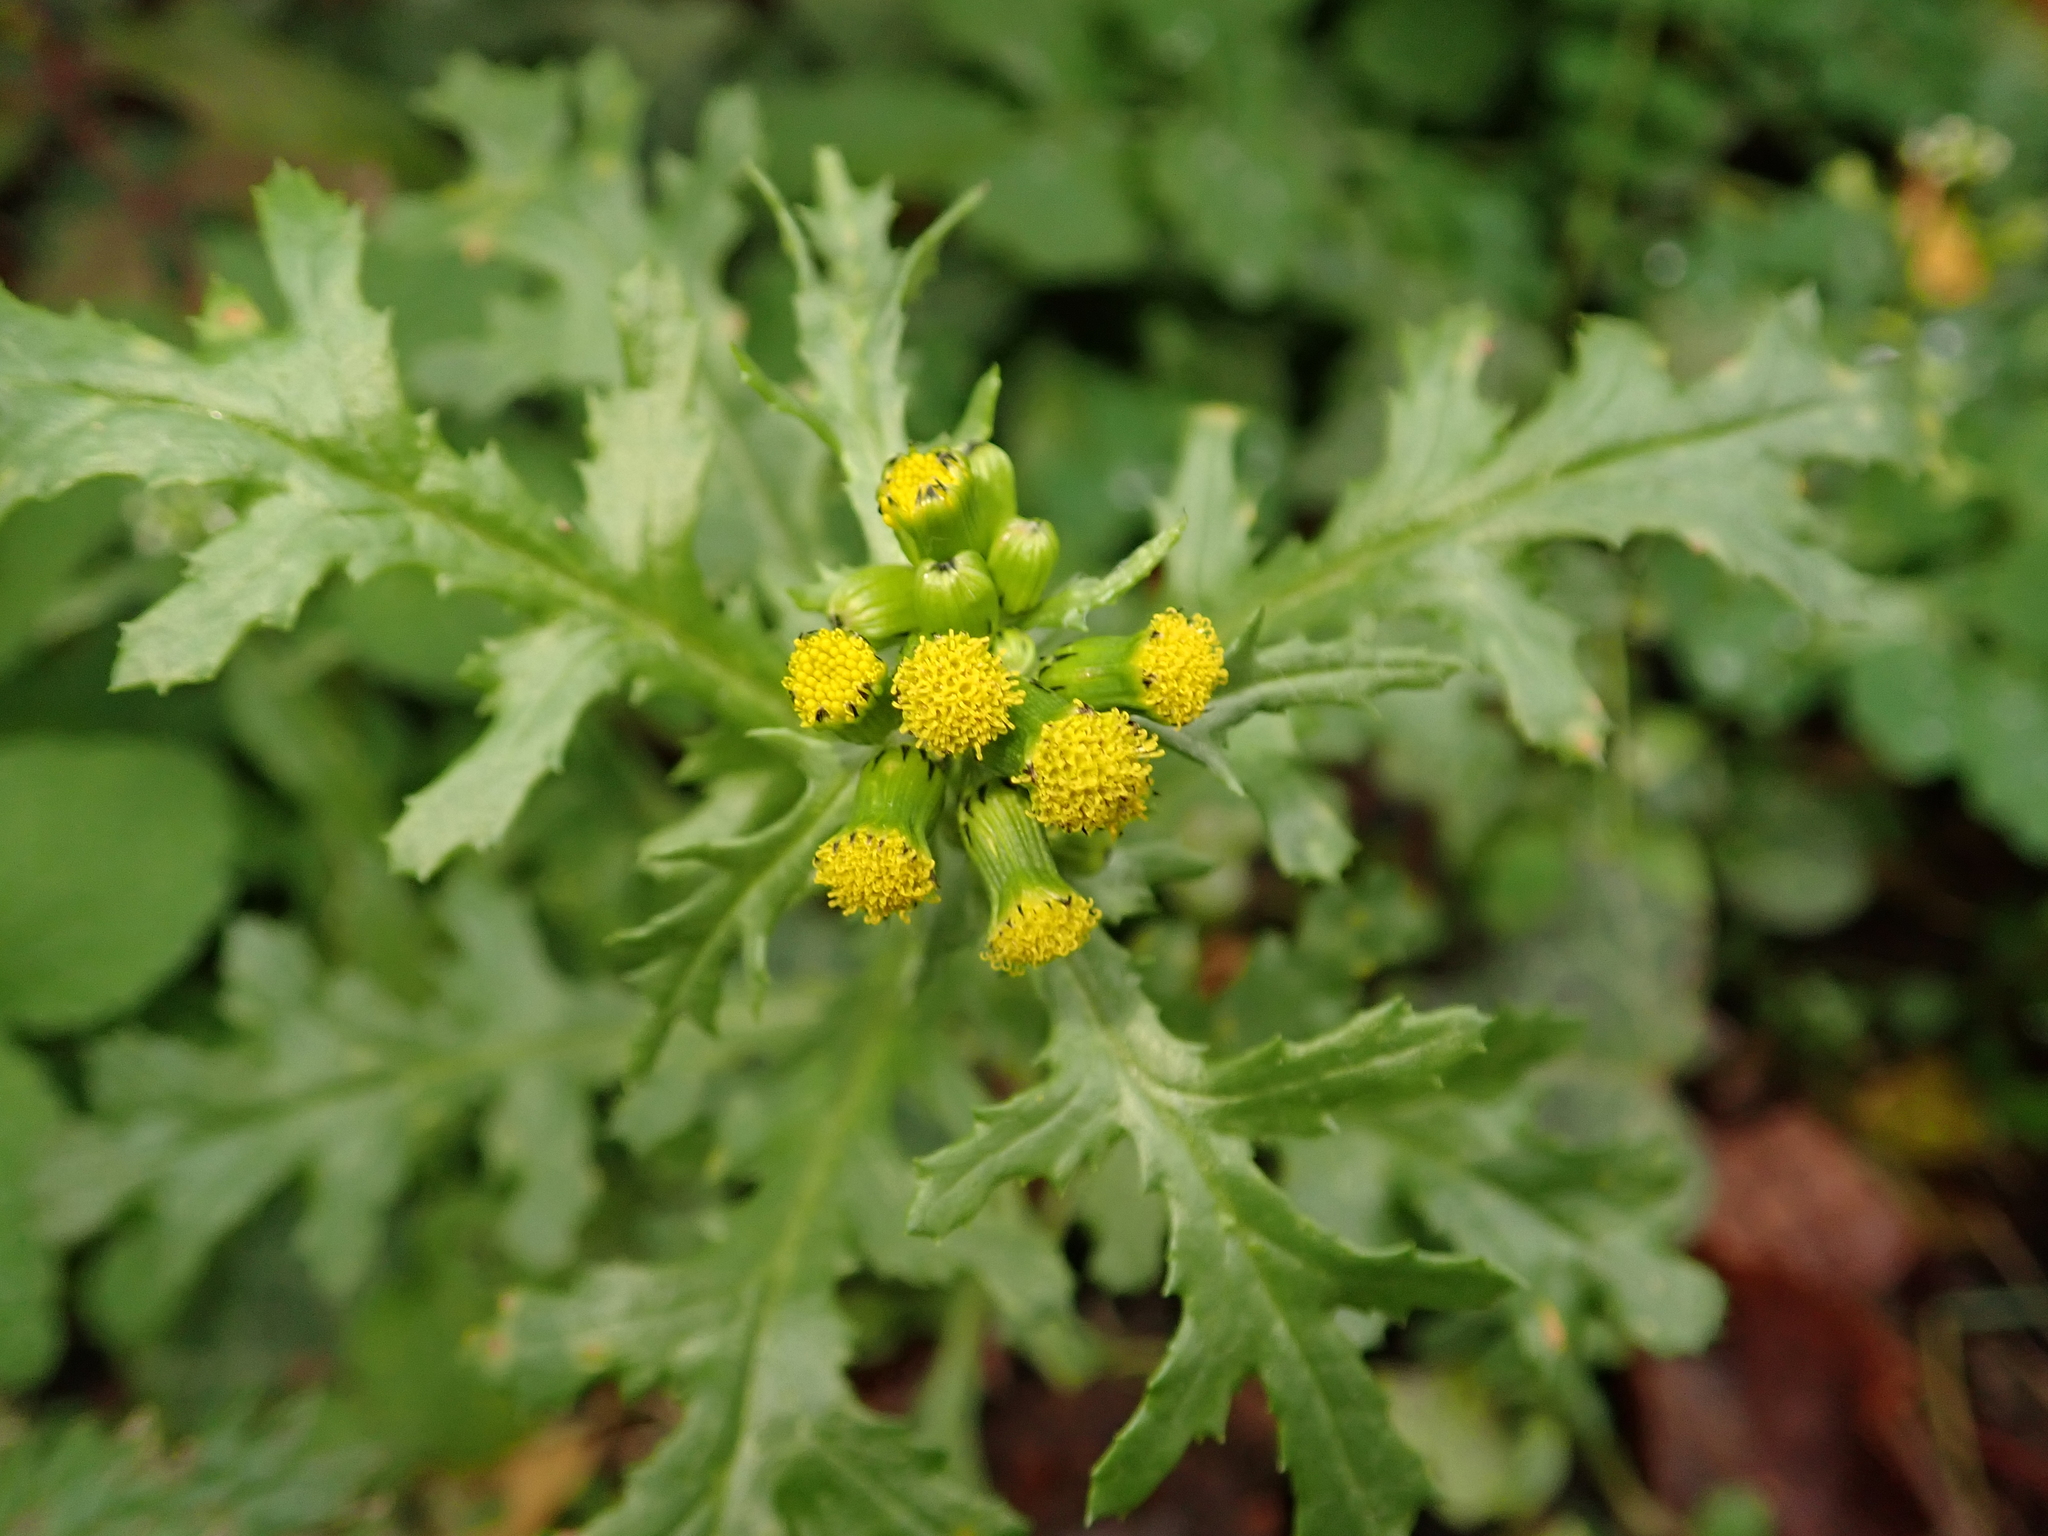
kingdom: Plantae
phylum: Tracheophyta
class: Magnoliopsida
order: Asterales
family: Asteraceae
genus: Senecio
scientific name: Senecio vulgaris
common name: Old-man-in-the-spring
